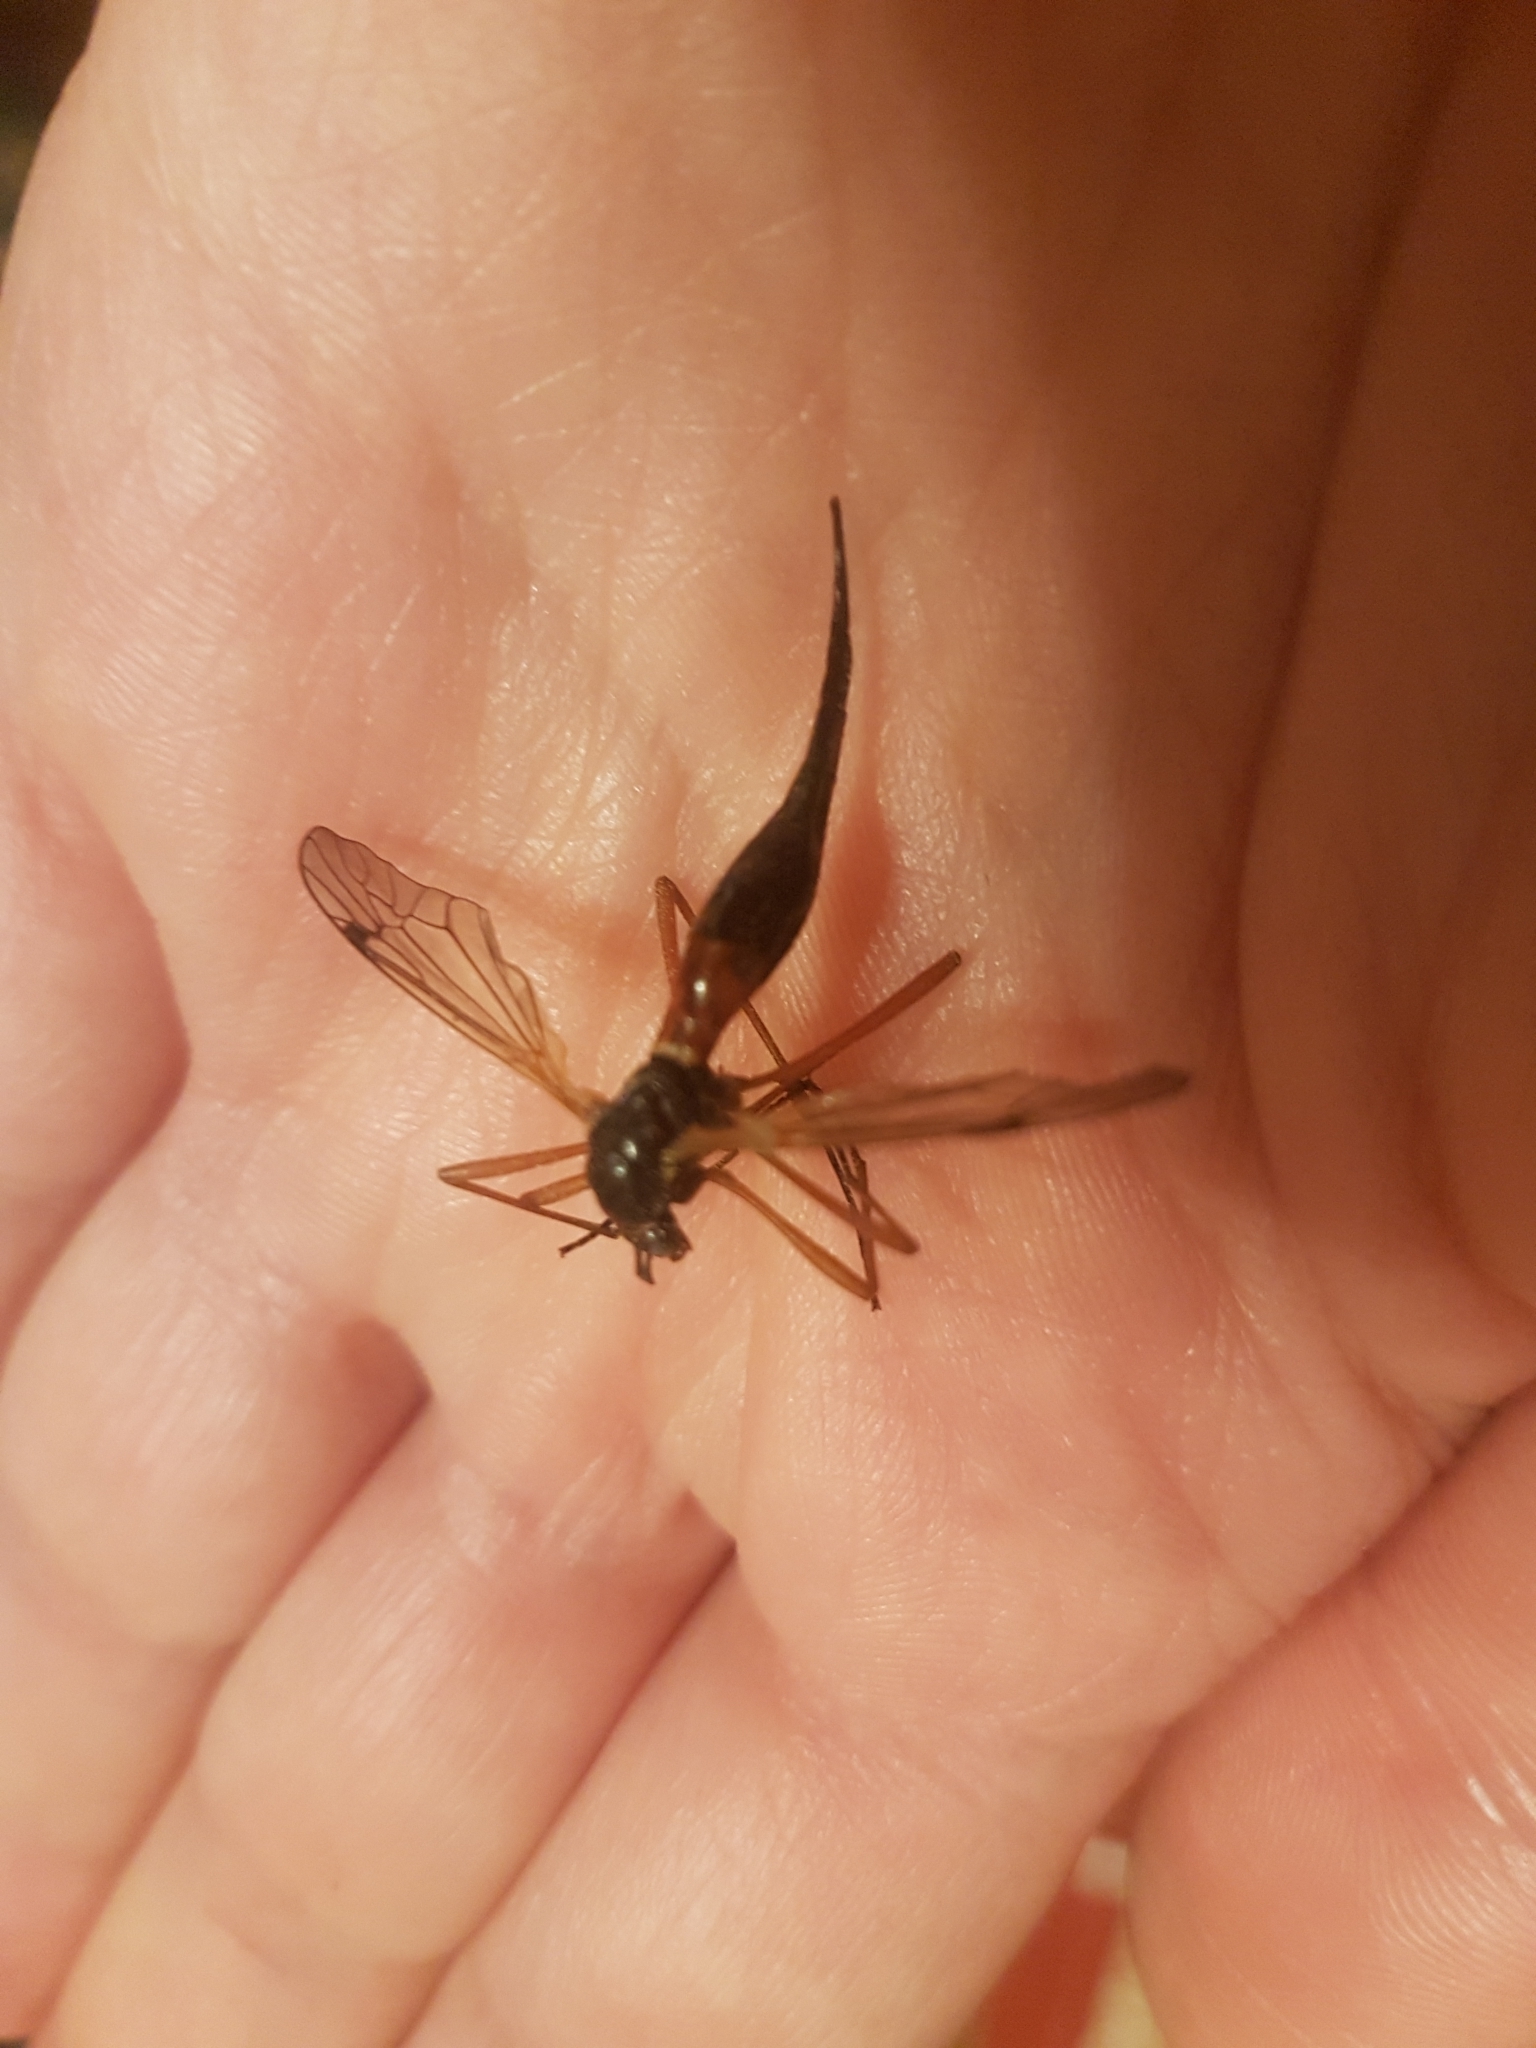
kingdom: Animalia
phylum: Arthropoda
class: Insecta
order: Diptera
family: Tipulidae
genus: Tanyptera
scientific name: Tanyptera atrata
